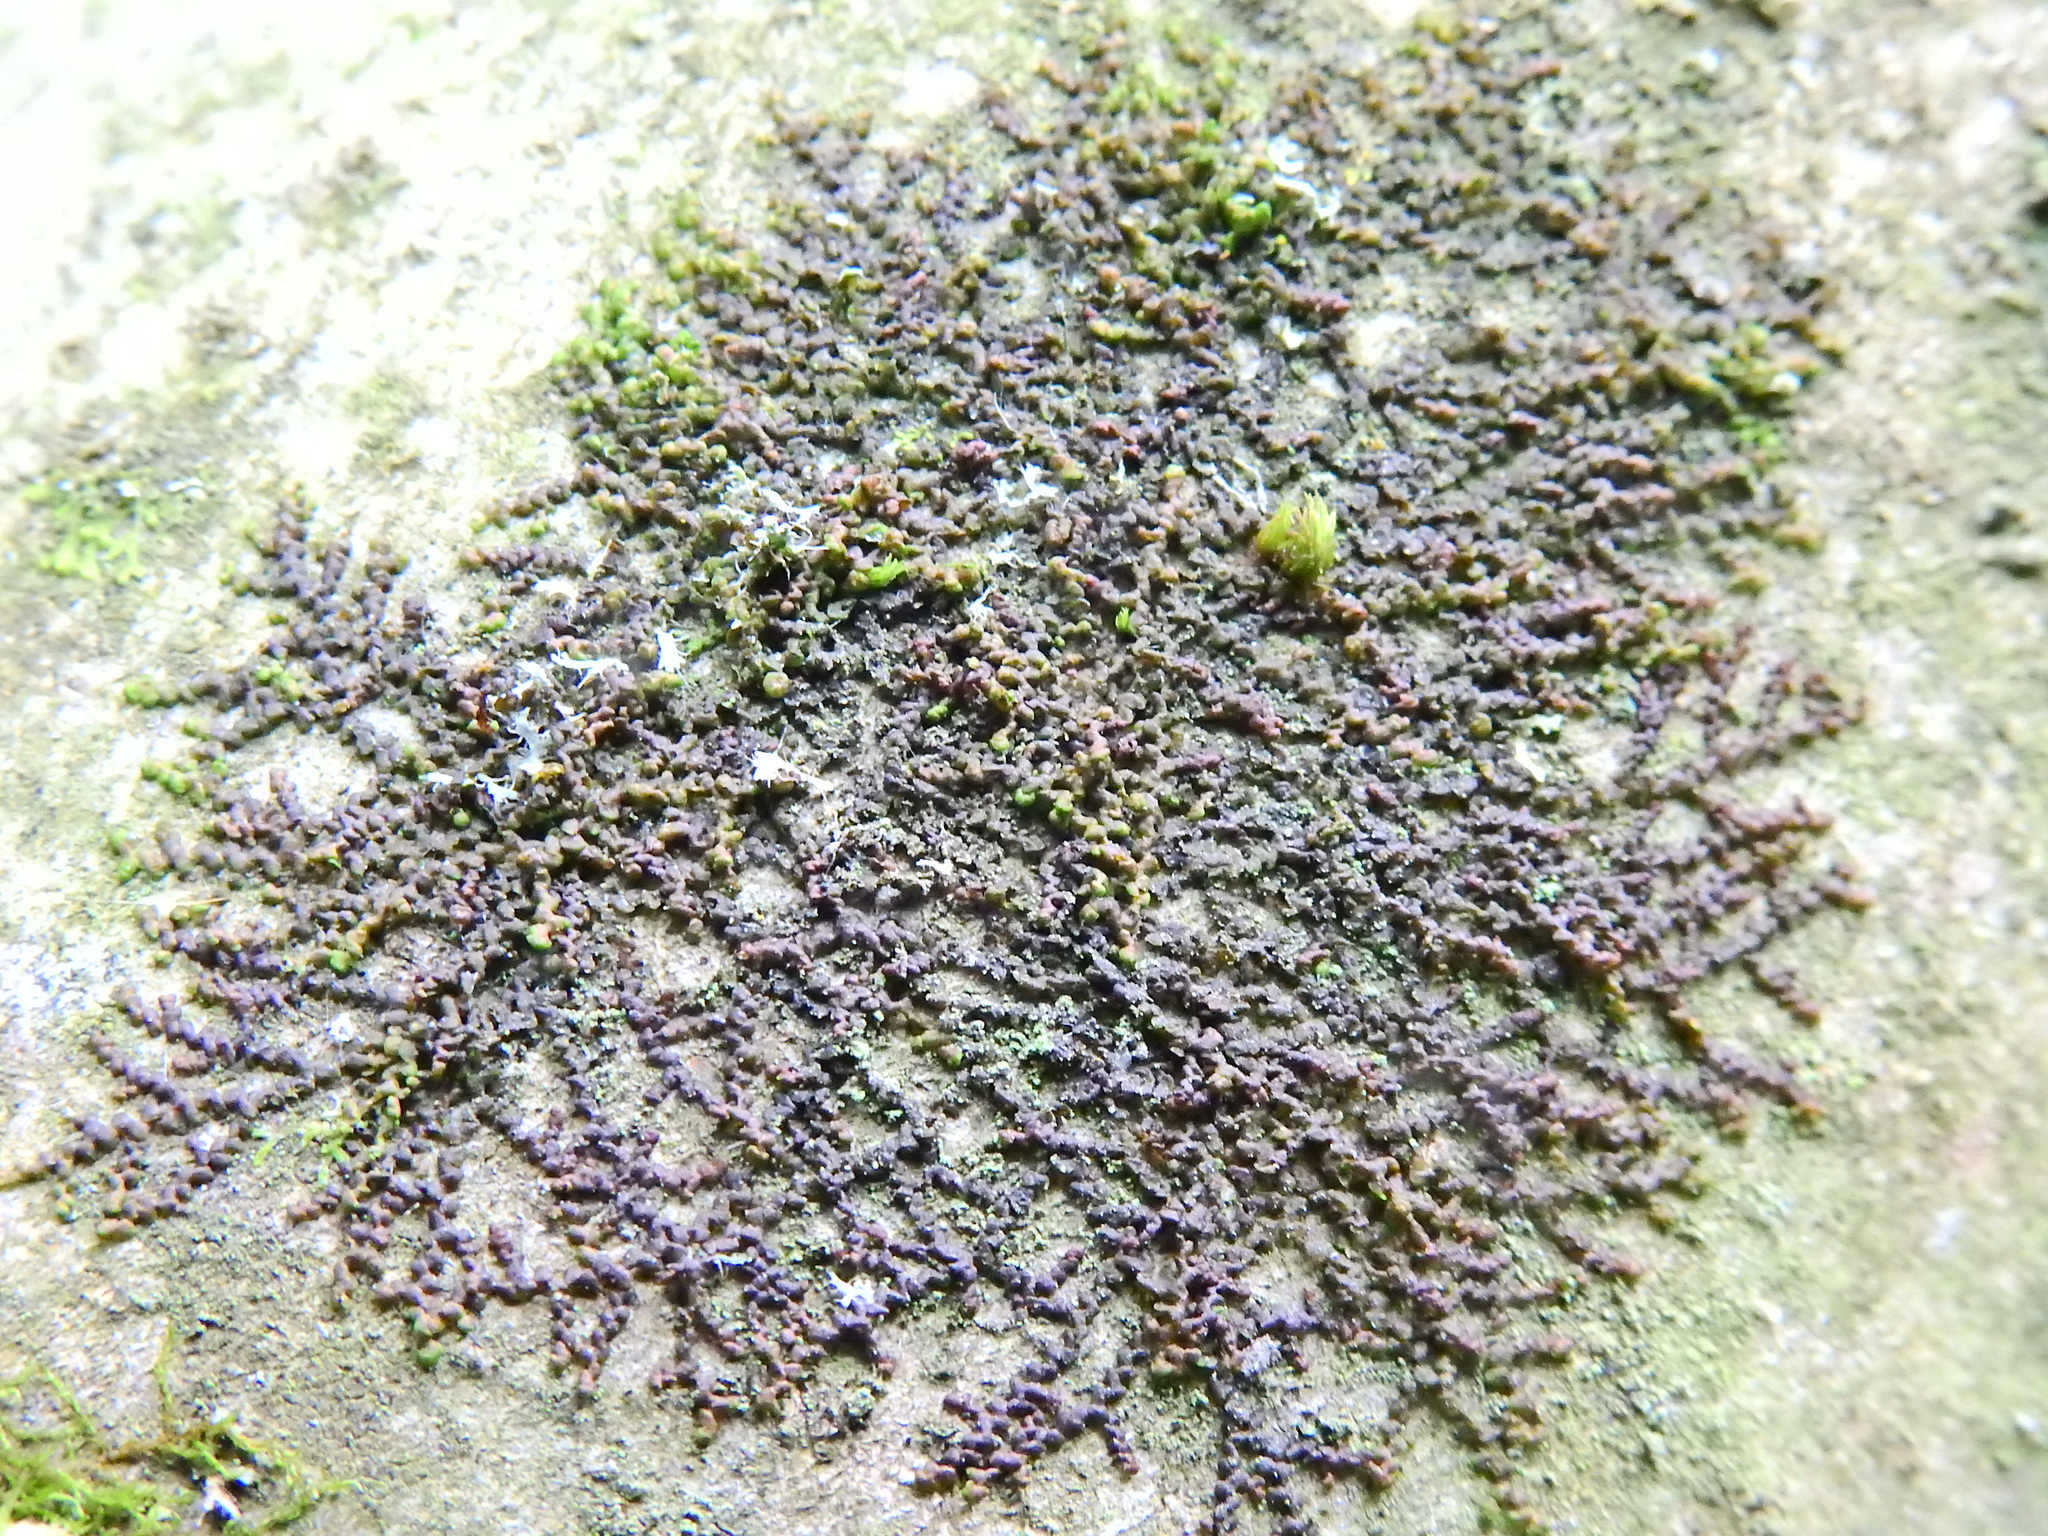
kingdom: Plantae
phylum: Marchantiophyta
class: Jungermanniopsida
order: Porellales
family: Frullaniaceae
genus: Frullania
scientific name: Frullania dilatata
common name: Dilated scalewort
